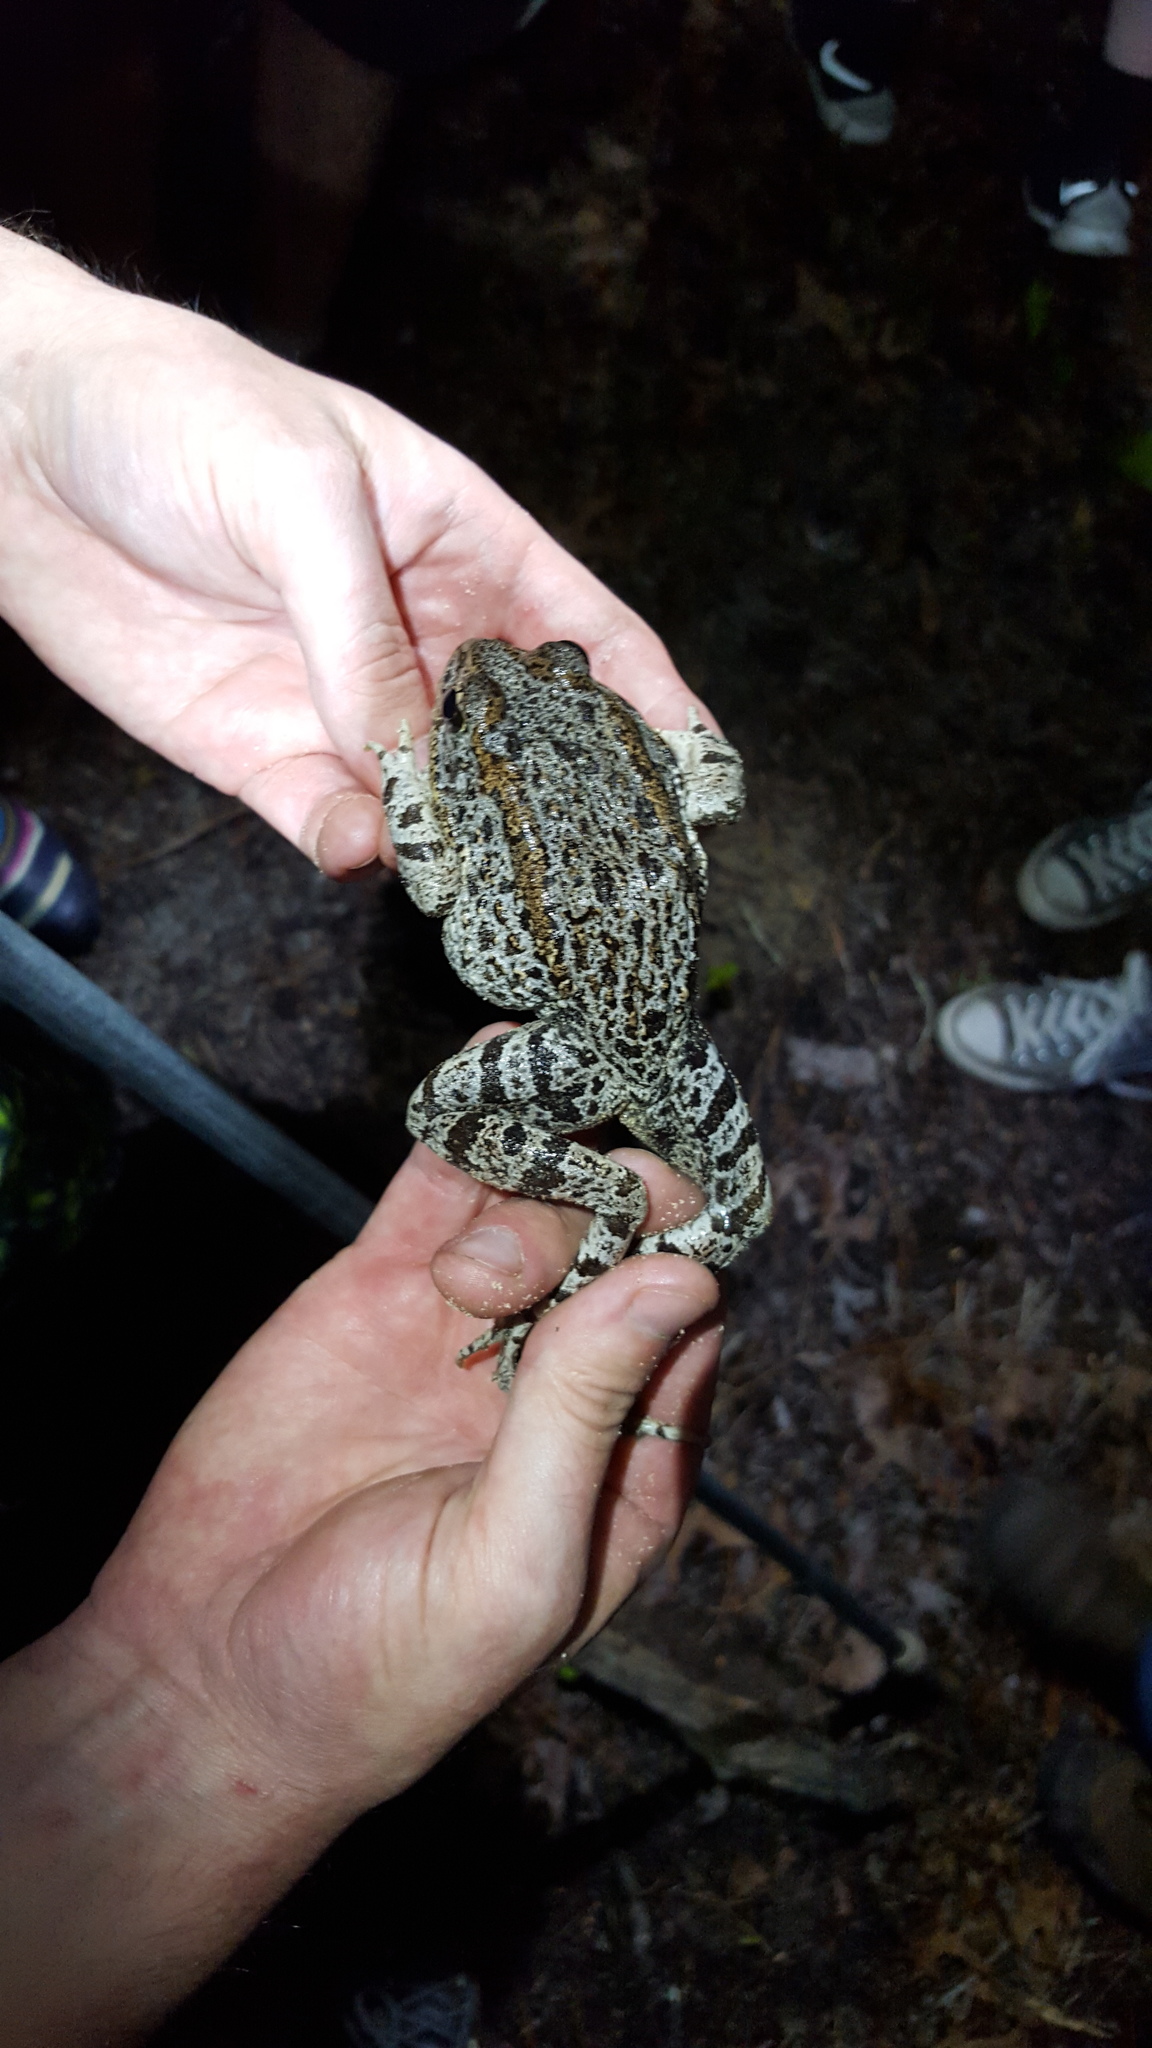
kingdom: Animalia
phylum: Chordata
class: Amphibia
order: Anura
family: Ranidae
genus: Lithobates
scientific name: Lithobates capito
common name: Gopher frog
